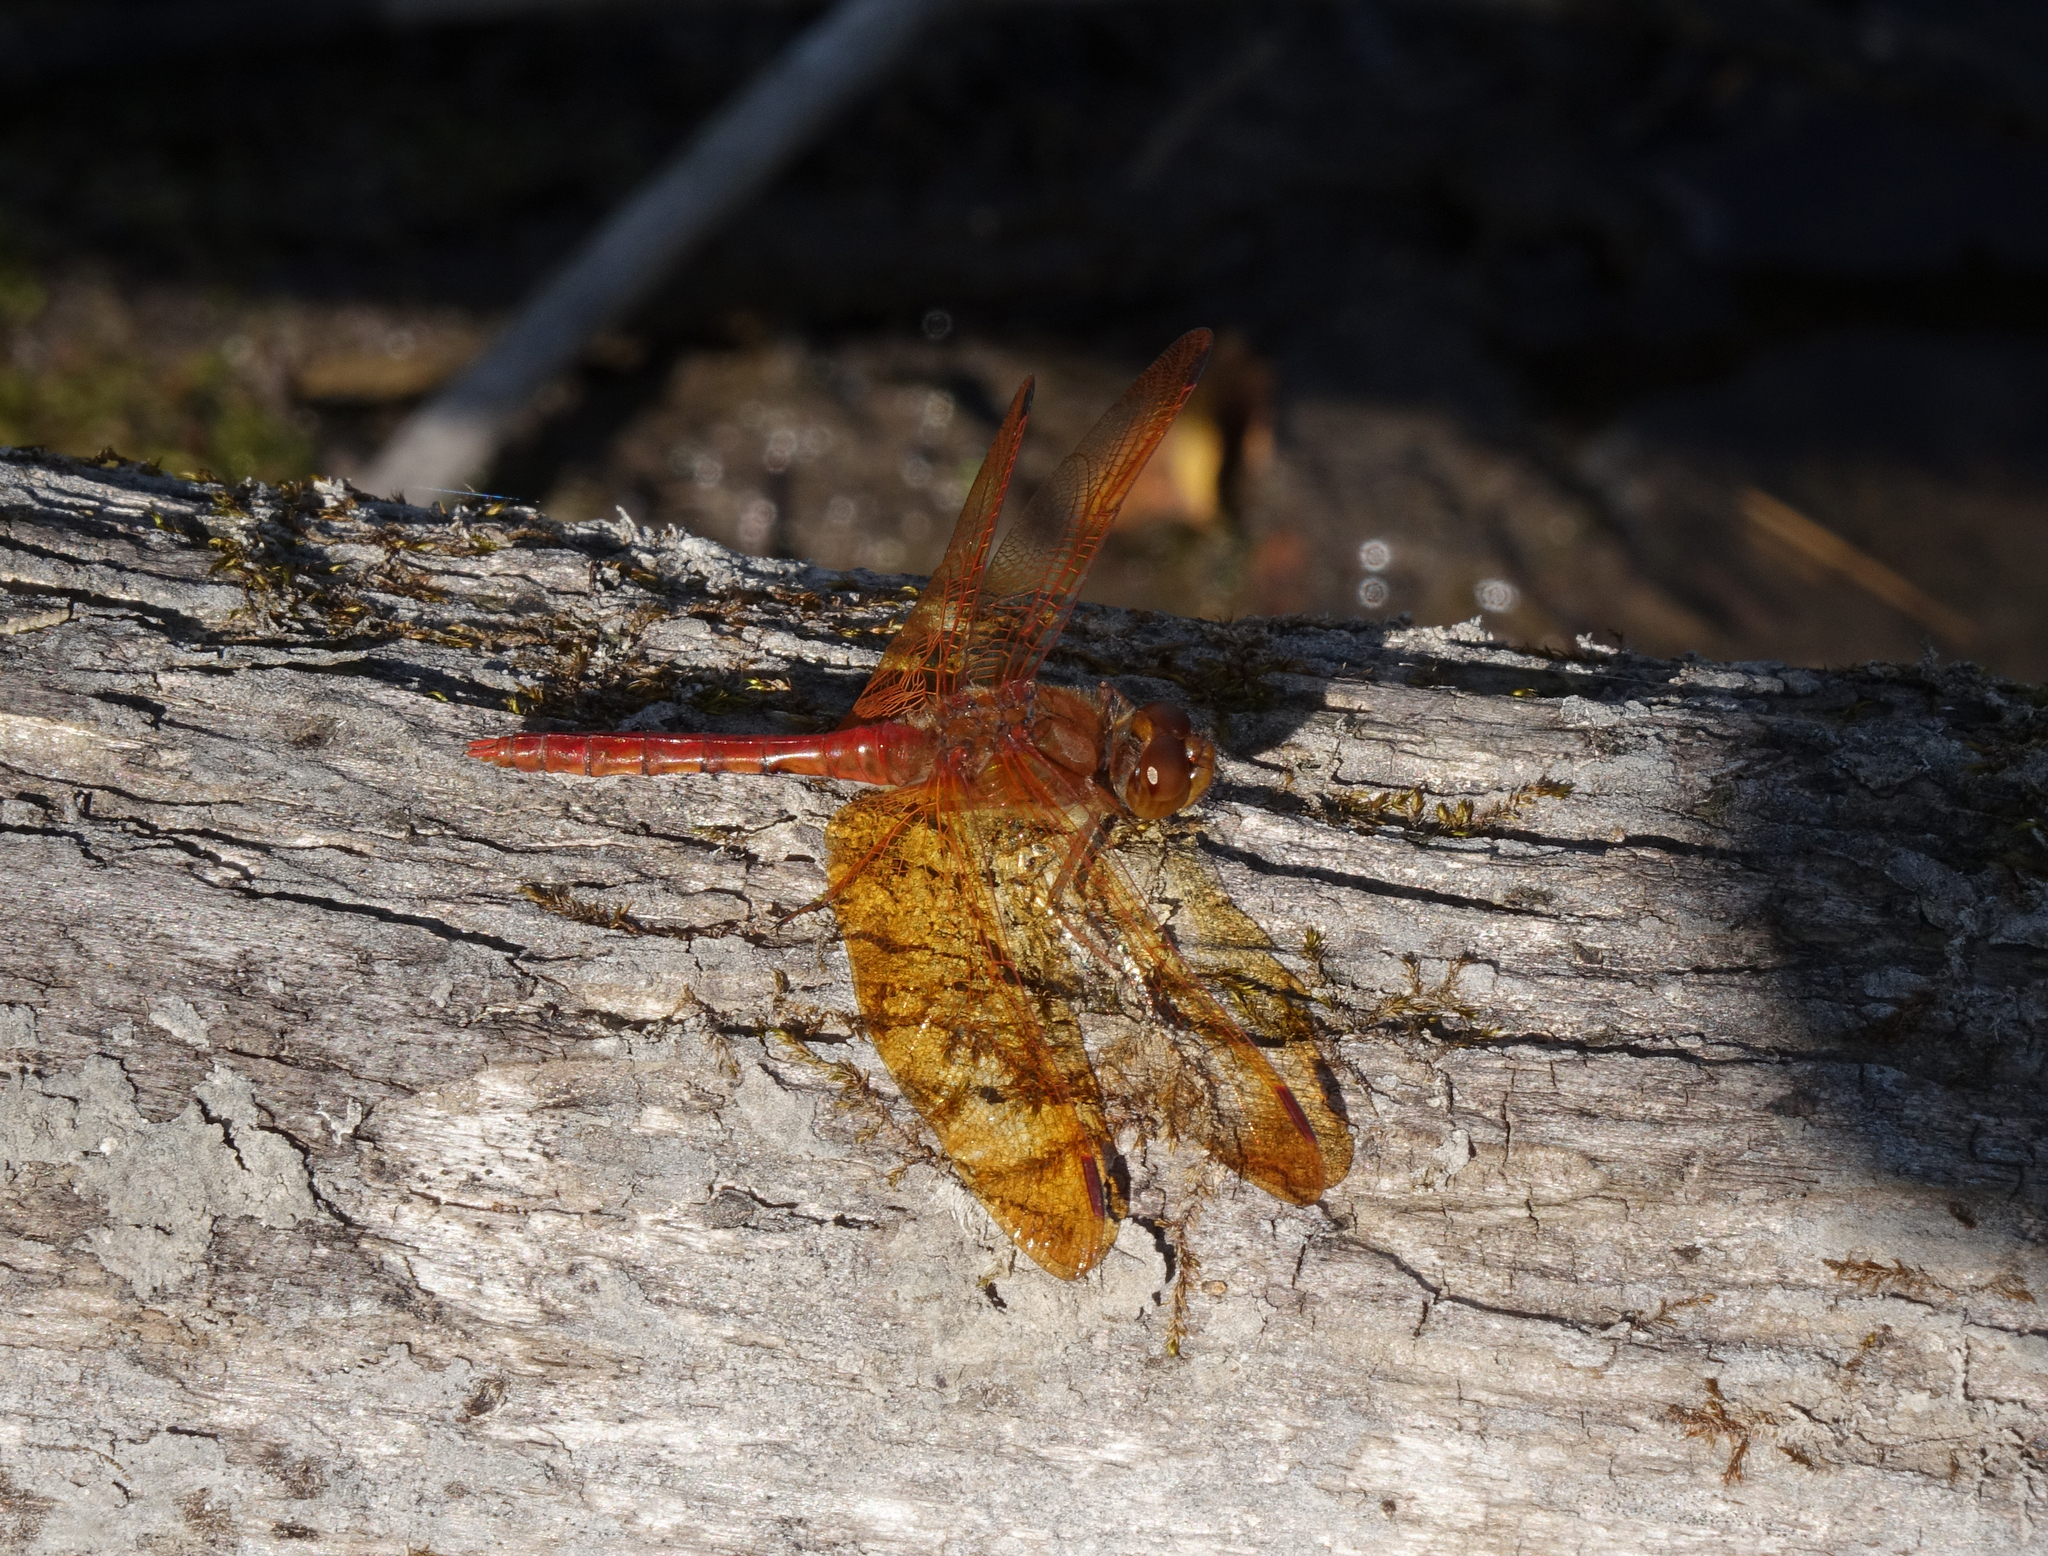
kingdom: Animalia
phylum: Arthropoda
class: Insecta
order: Odonata
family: Libellulidae
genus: Sympetrum
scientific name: Sympetrum croceolum
